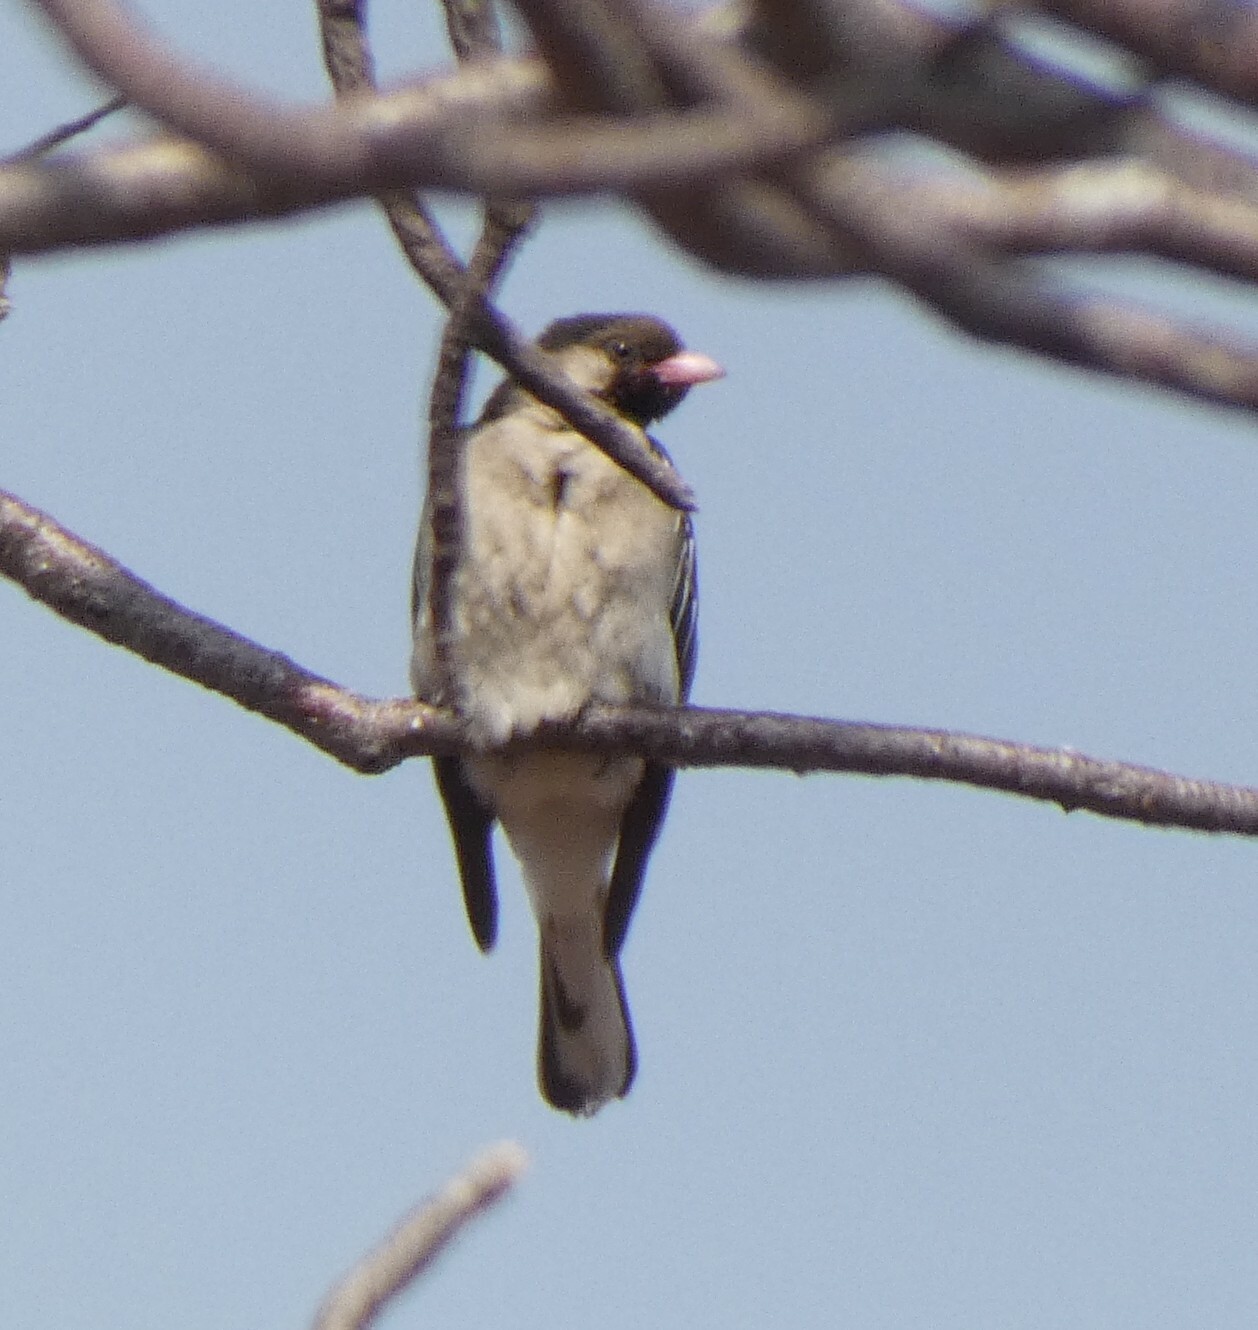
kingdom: Animalia
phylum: Chordata
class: Aves
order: Piciformes
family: Indicatoridae
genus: Indicator
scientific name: Indicator indicator
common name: Greater honeyguide
